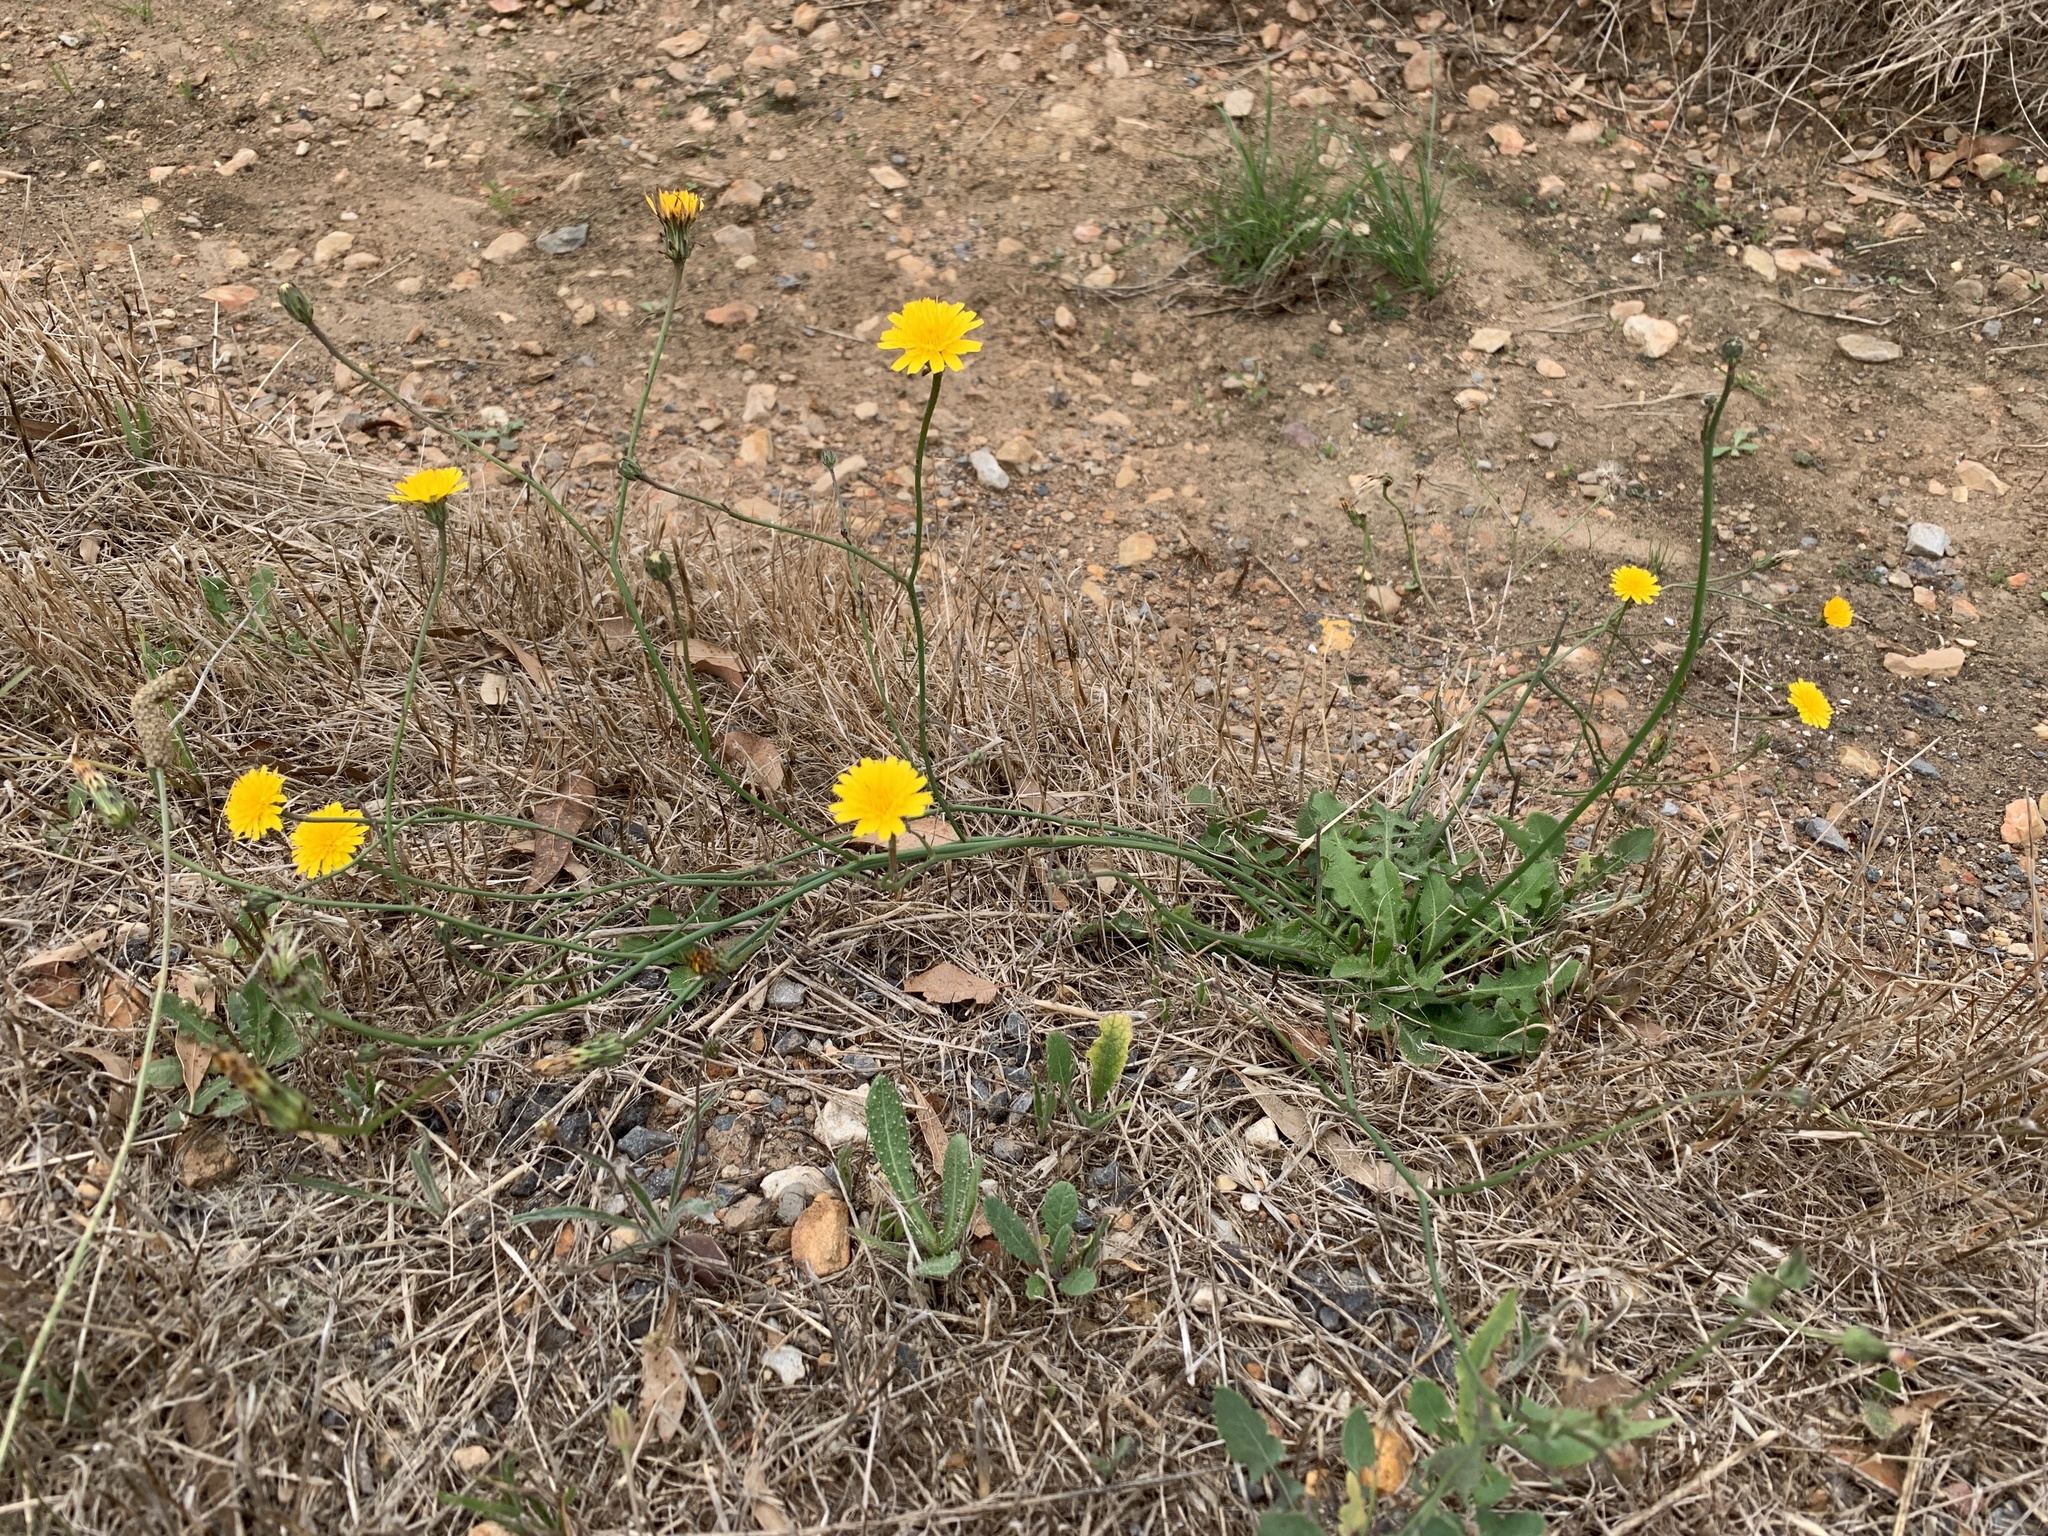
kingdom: Plantae
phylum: Tracheophyta
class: Magnoliopsida
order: Asterales
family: Asteraceae
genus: Hypochaeris
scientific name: Hypochaeris radicata
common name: Flatweed
